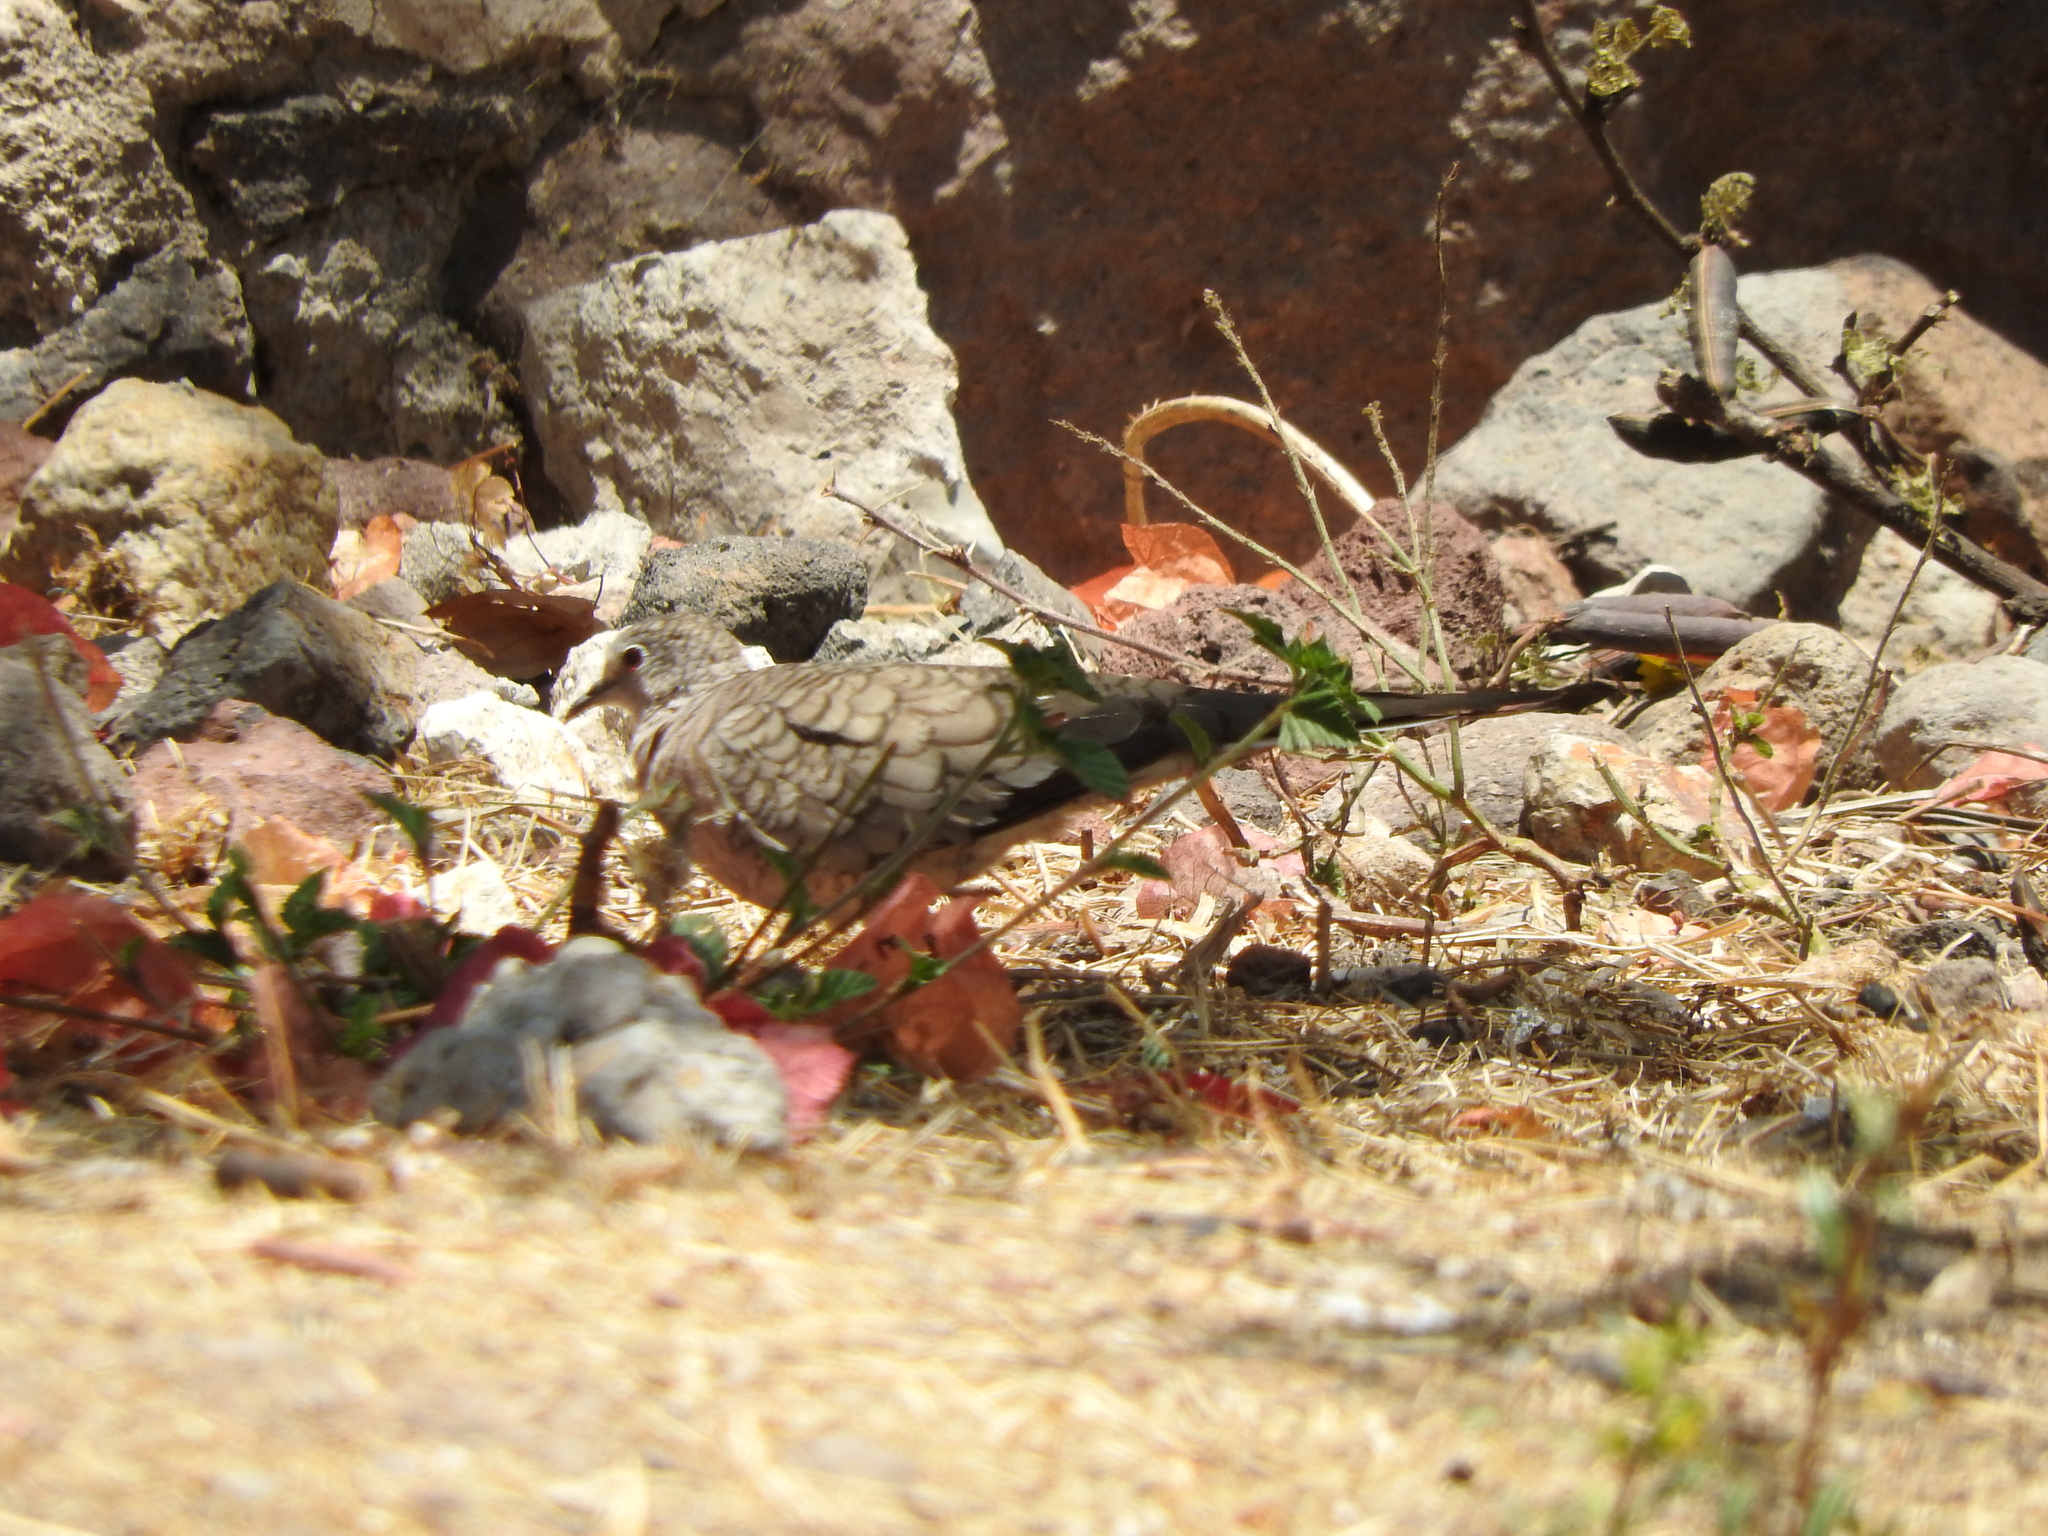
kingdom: Animalia
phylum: Chordata
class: Aves
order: Columbiformes
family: Columbidae
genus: Columbina
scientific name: Columbina inca
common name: Inca dove
